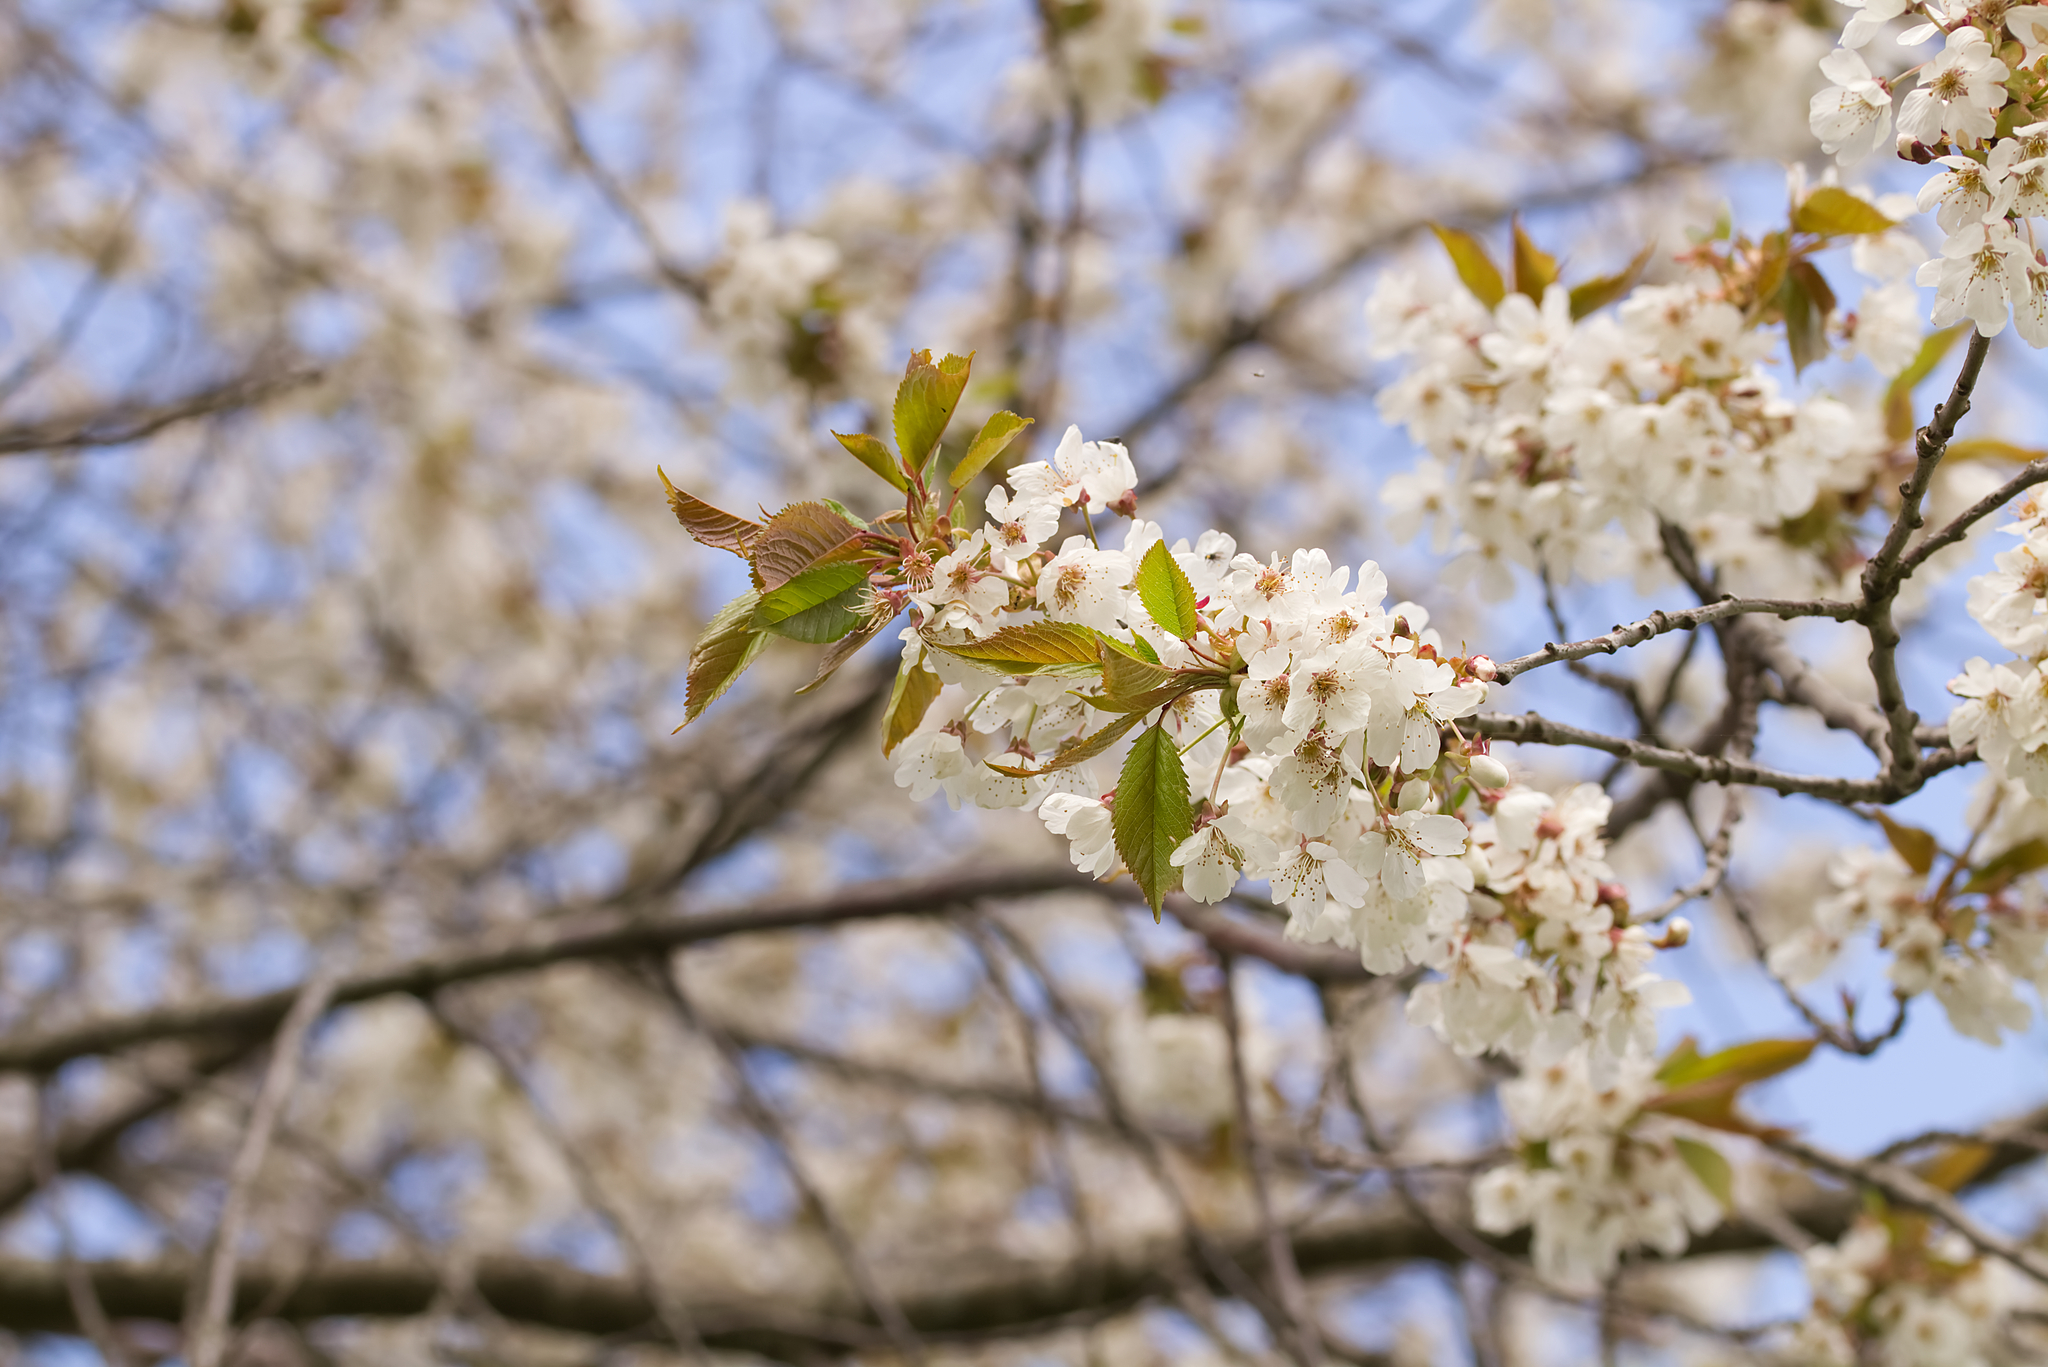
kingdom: Plantae
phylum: Tracheophyta
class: Magnoliopsida
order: Rosales
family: Rosaceae
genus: Prunus
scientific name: Prunus avium
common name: Sweet cherry
